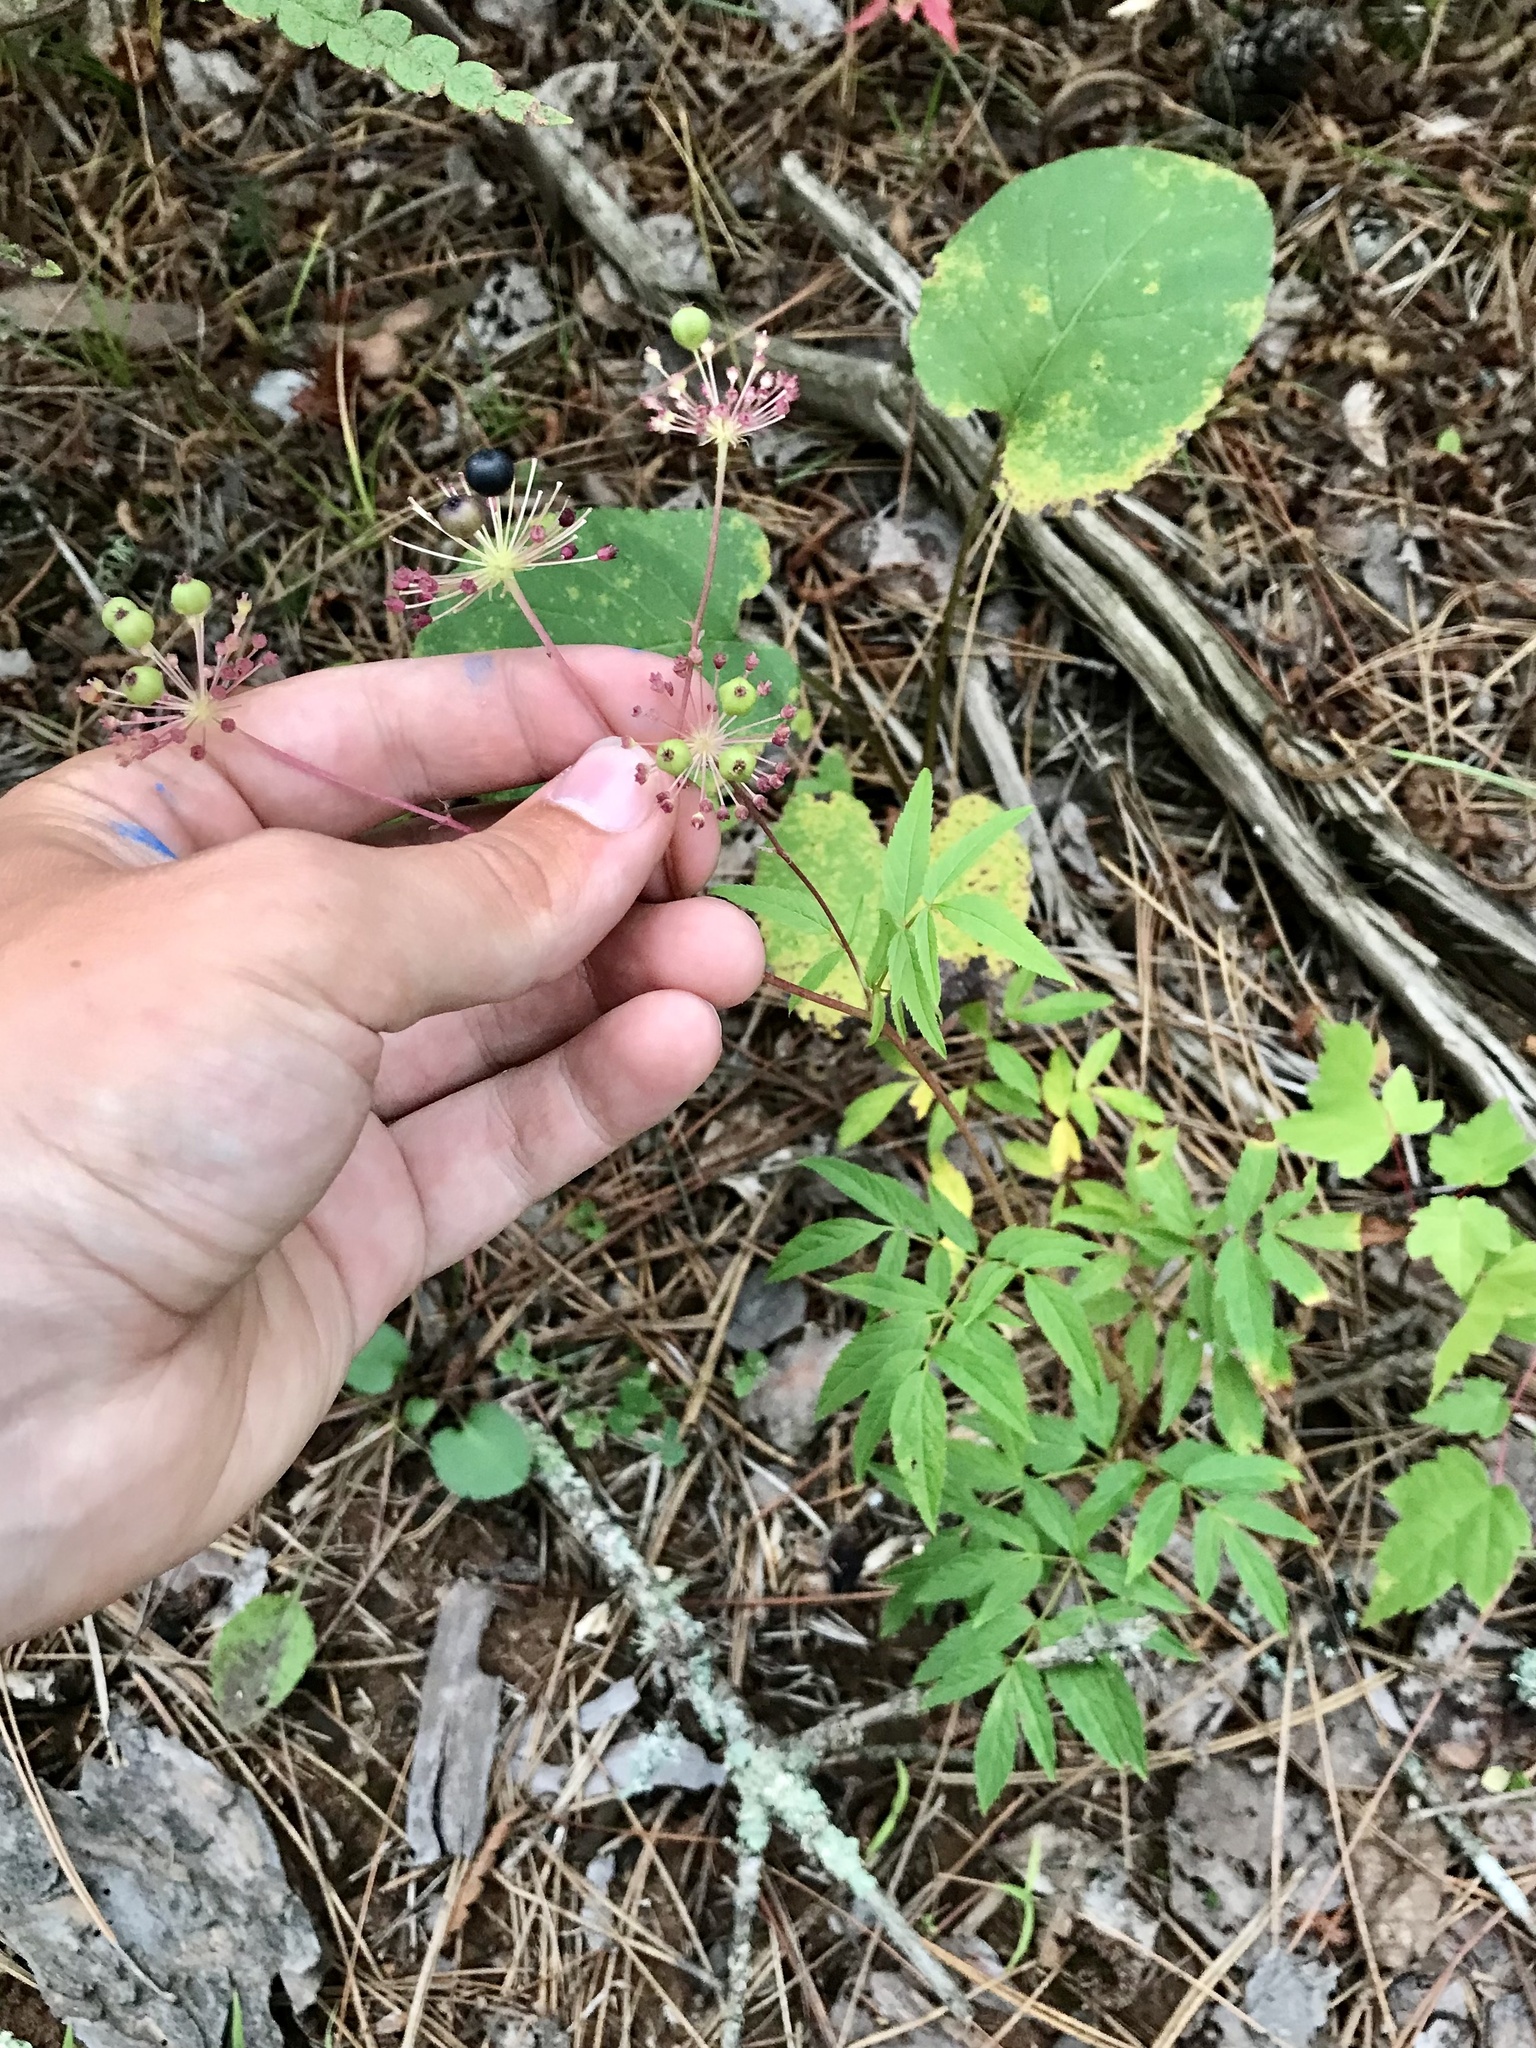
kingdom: Plantae
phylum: Tracheophyta
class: Magnoliopsida
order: Apiales
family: Araliaceae
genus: Aralia
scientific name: Aralia hispida
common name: Bristly sarsaparilla
